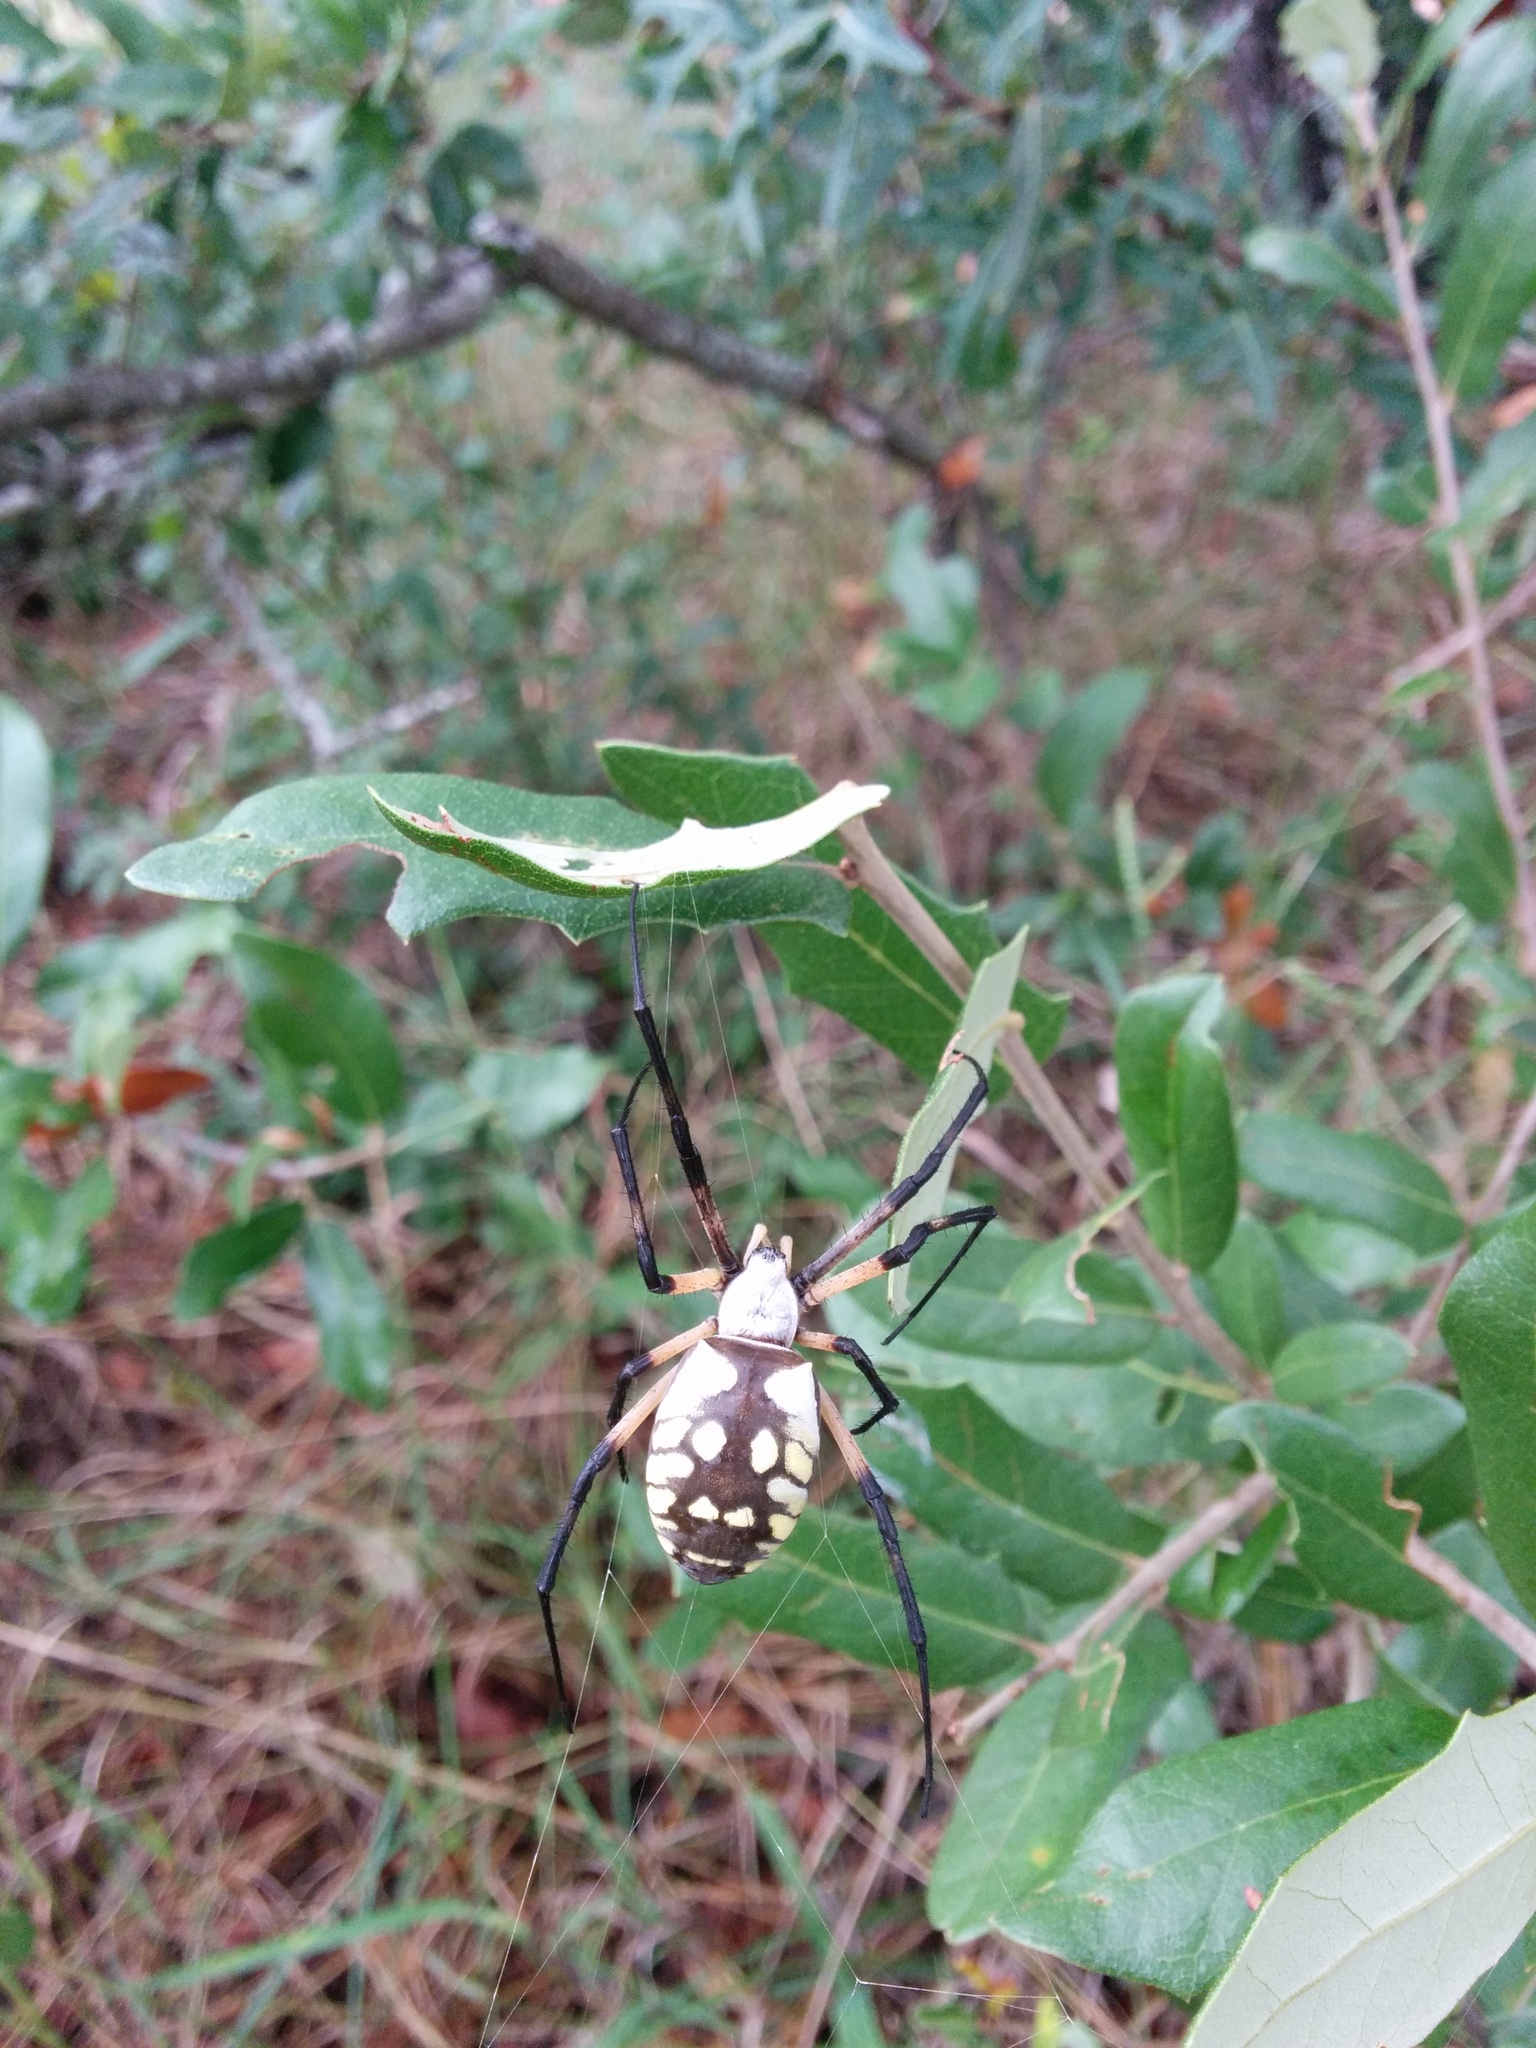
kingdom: Animalia
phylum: Arthropoda
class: Arachnida
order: Araneae
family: Araneidae
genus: Argiope
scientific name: Argiope aurantia
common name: Orb weavers
